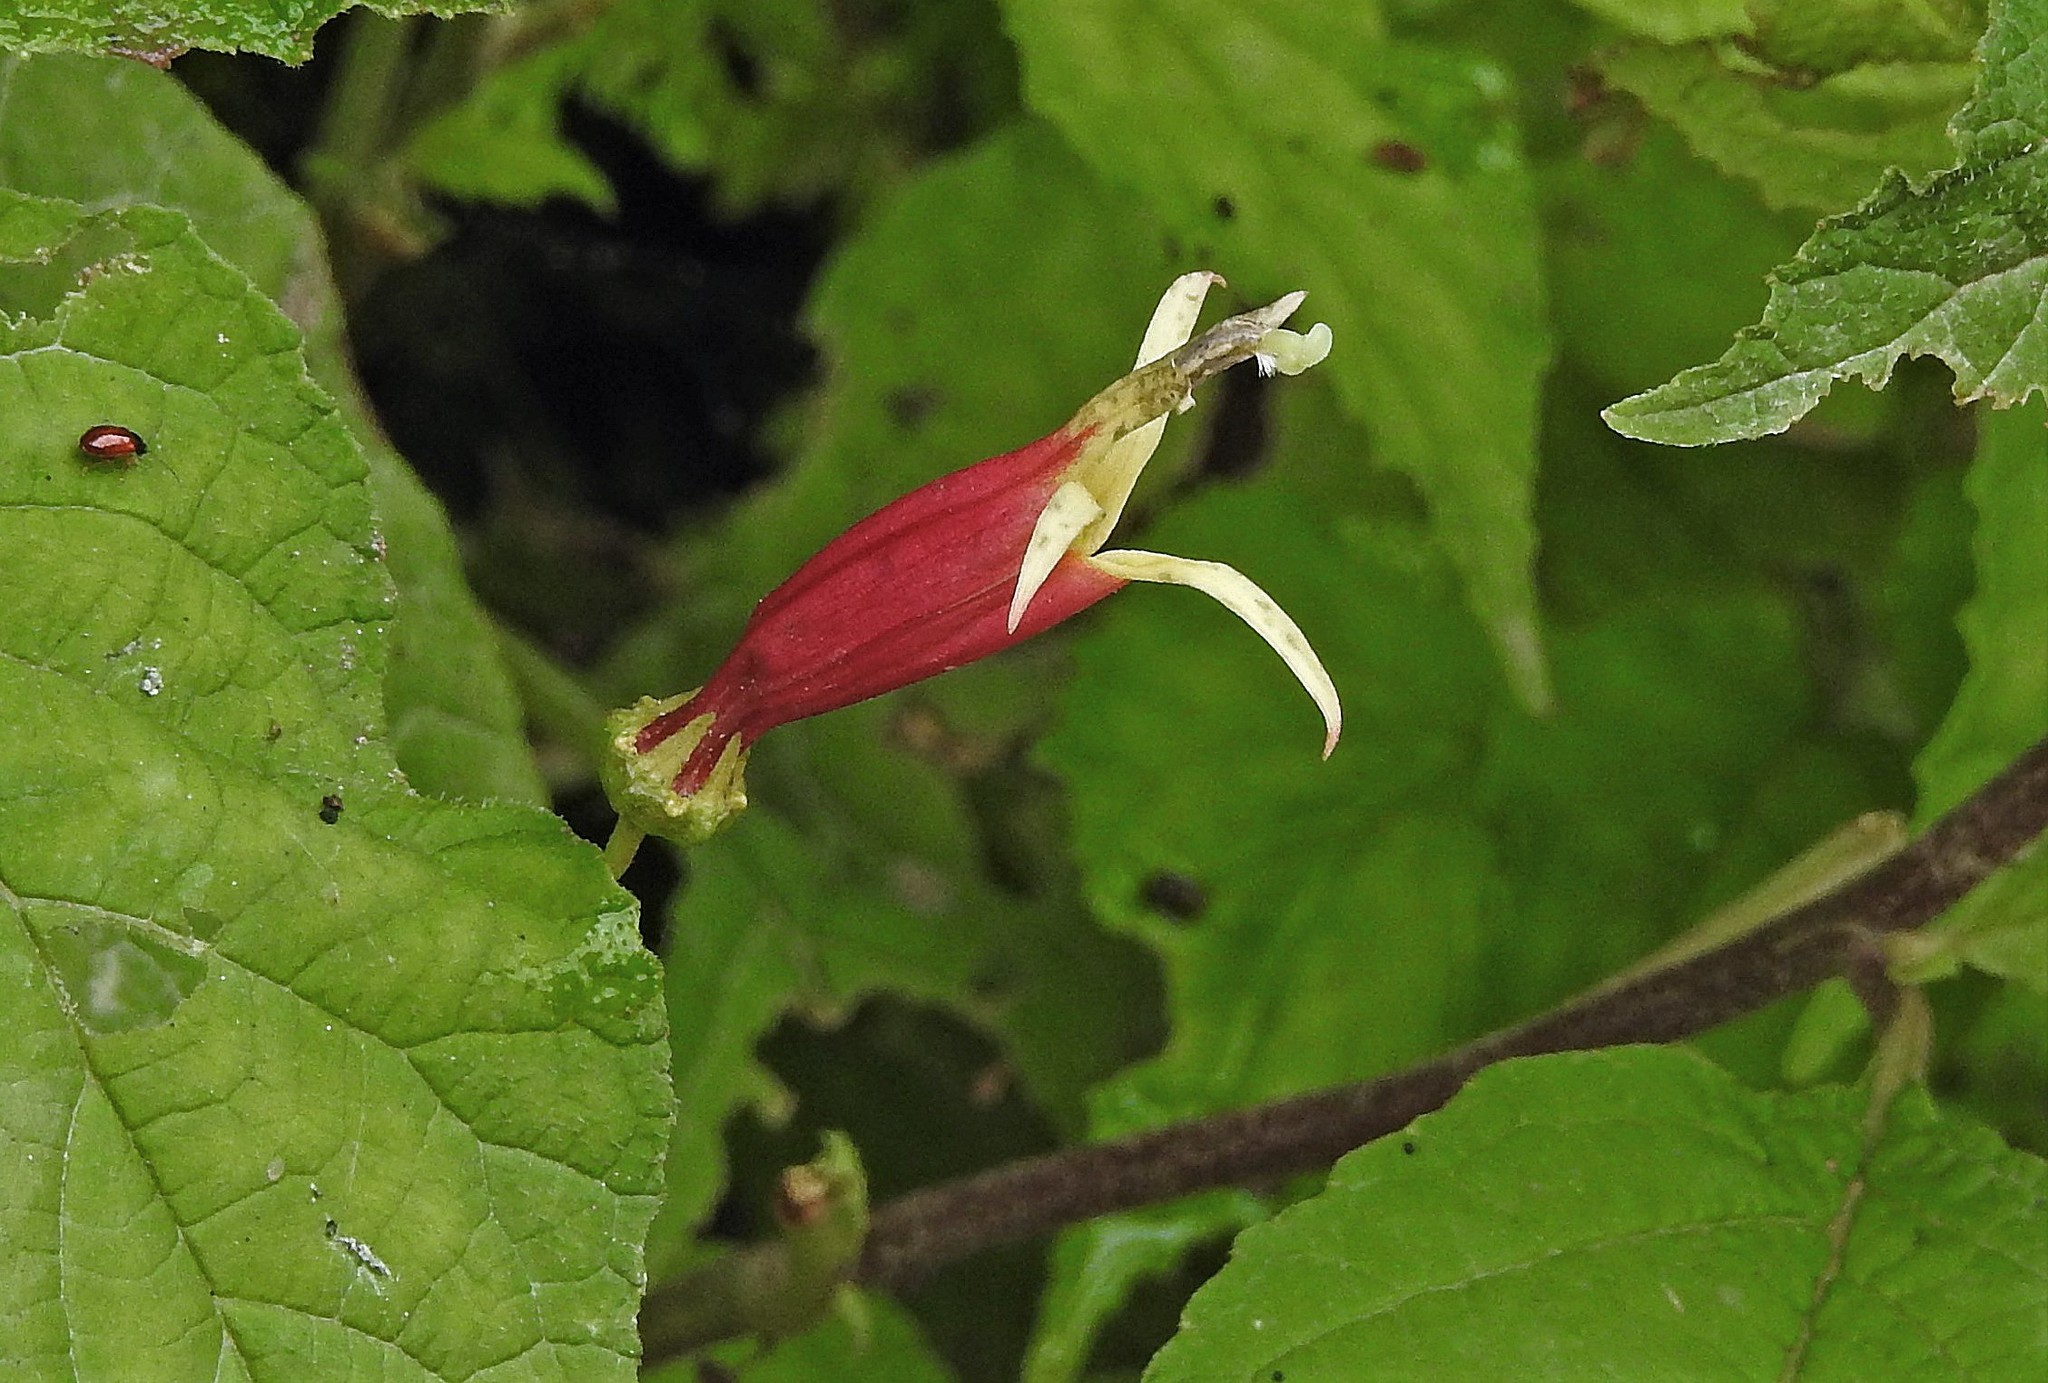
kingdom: Plantae
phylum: Tracheophyta
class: Magnoliopsida
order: Asterales
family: Campanulaceae
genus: Siphocampylus
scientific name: Siphocampylus argentinus
